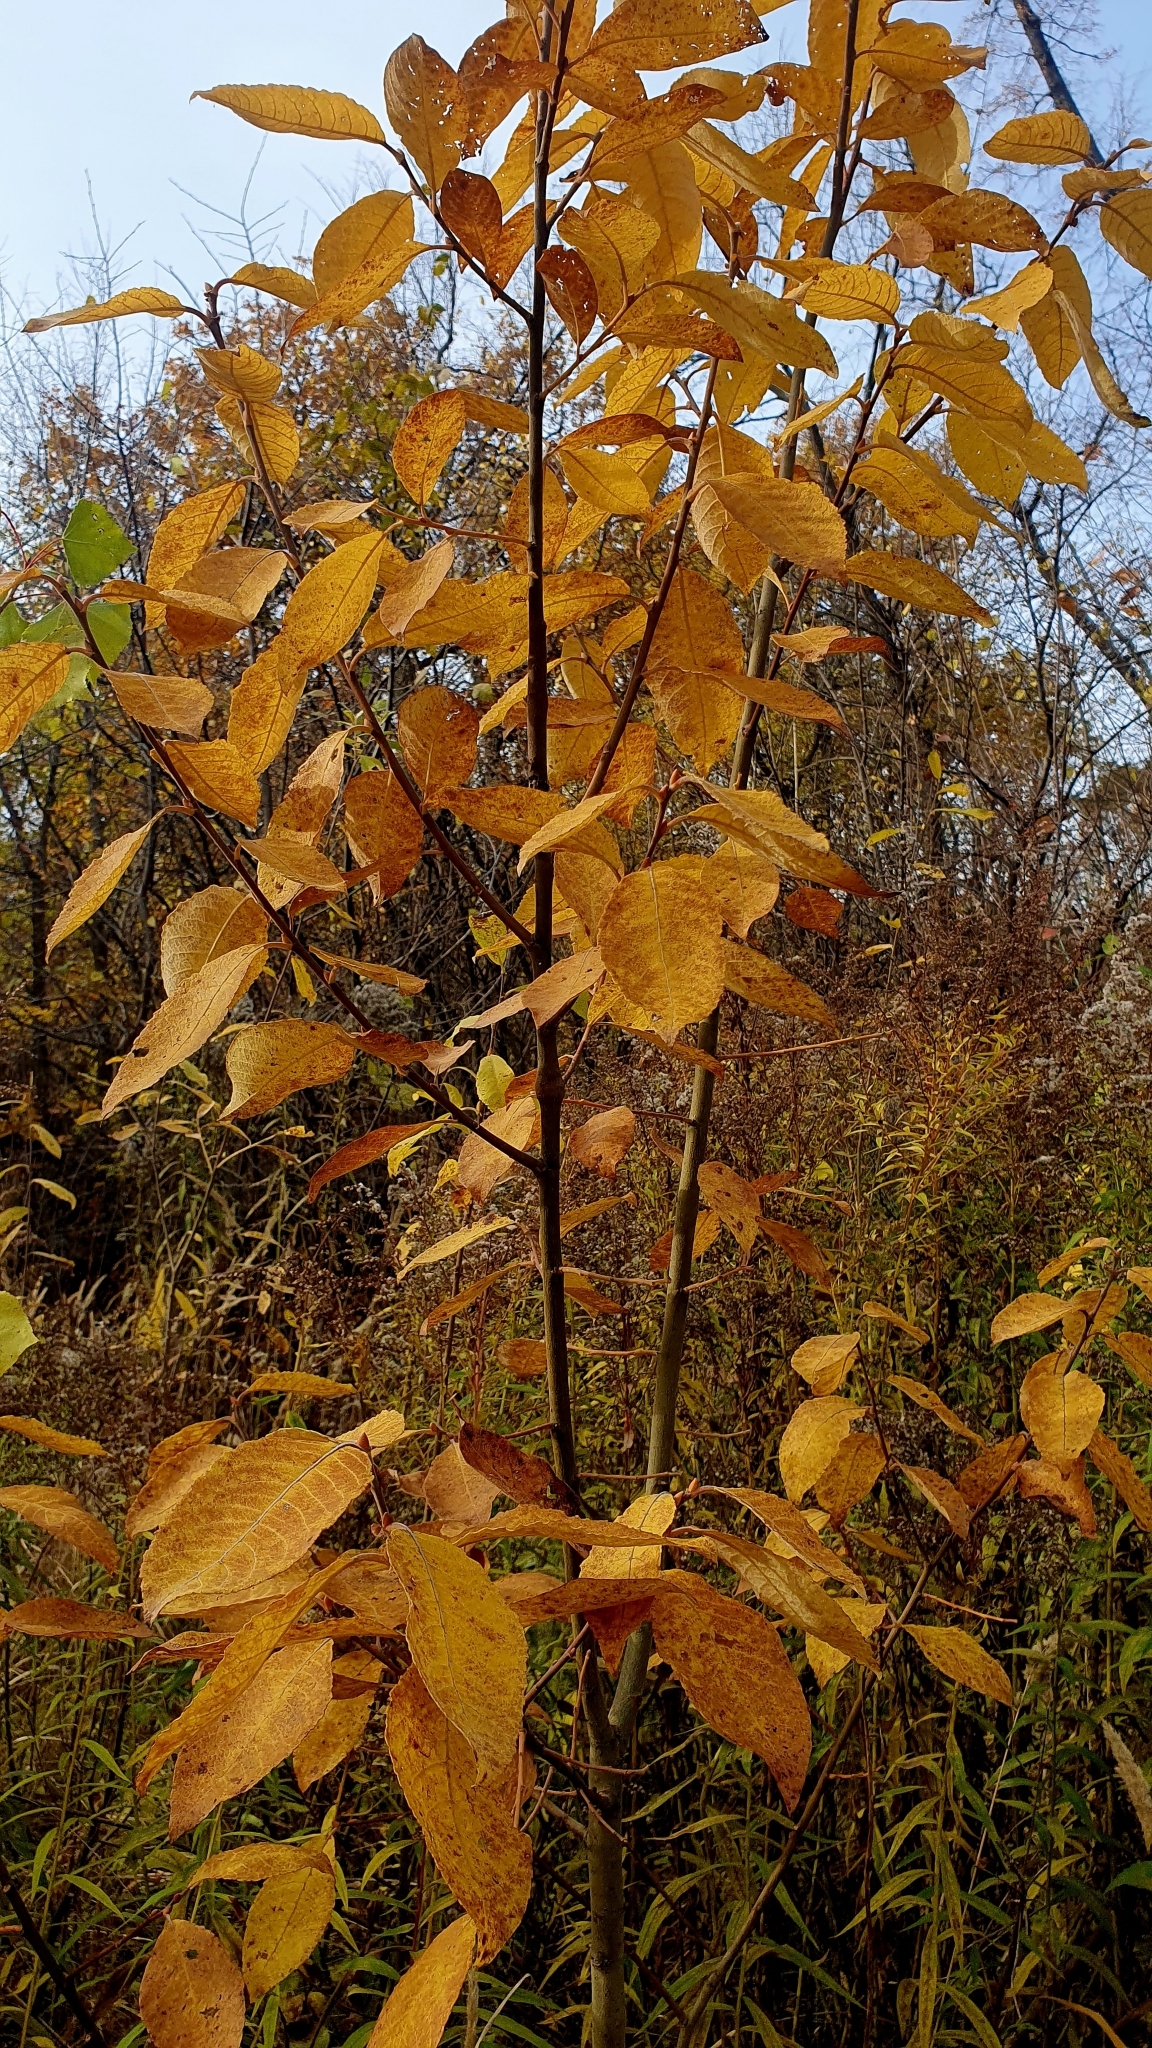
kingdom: Plantae
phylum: Tracheophyta
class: Magnoliopsida
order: Rosales
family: Rosaceae
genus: Prunus
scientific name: Prunus padus
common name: Bird cherry
